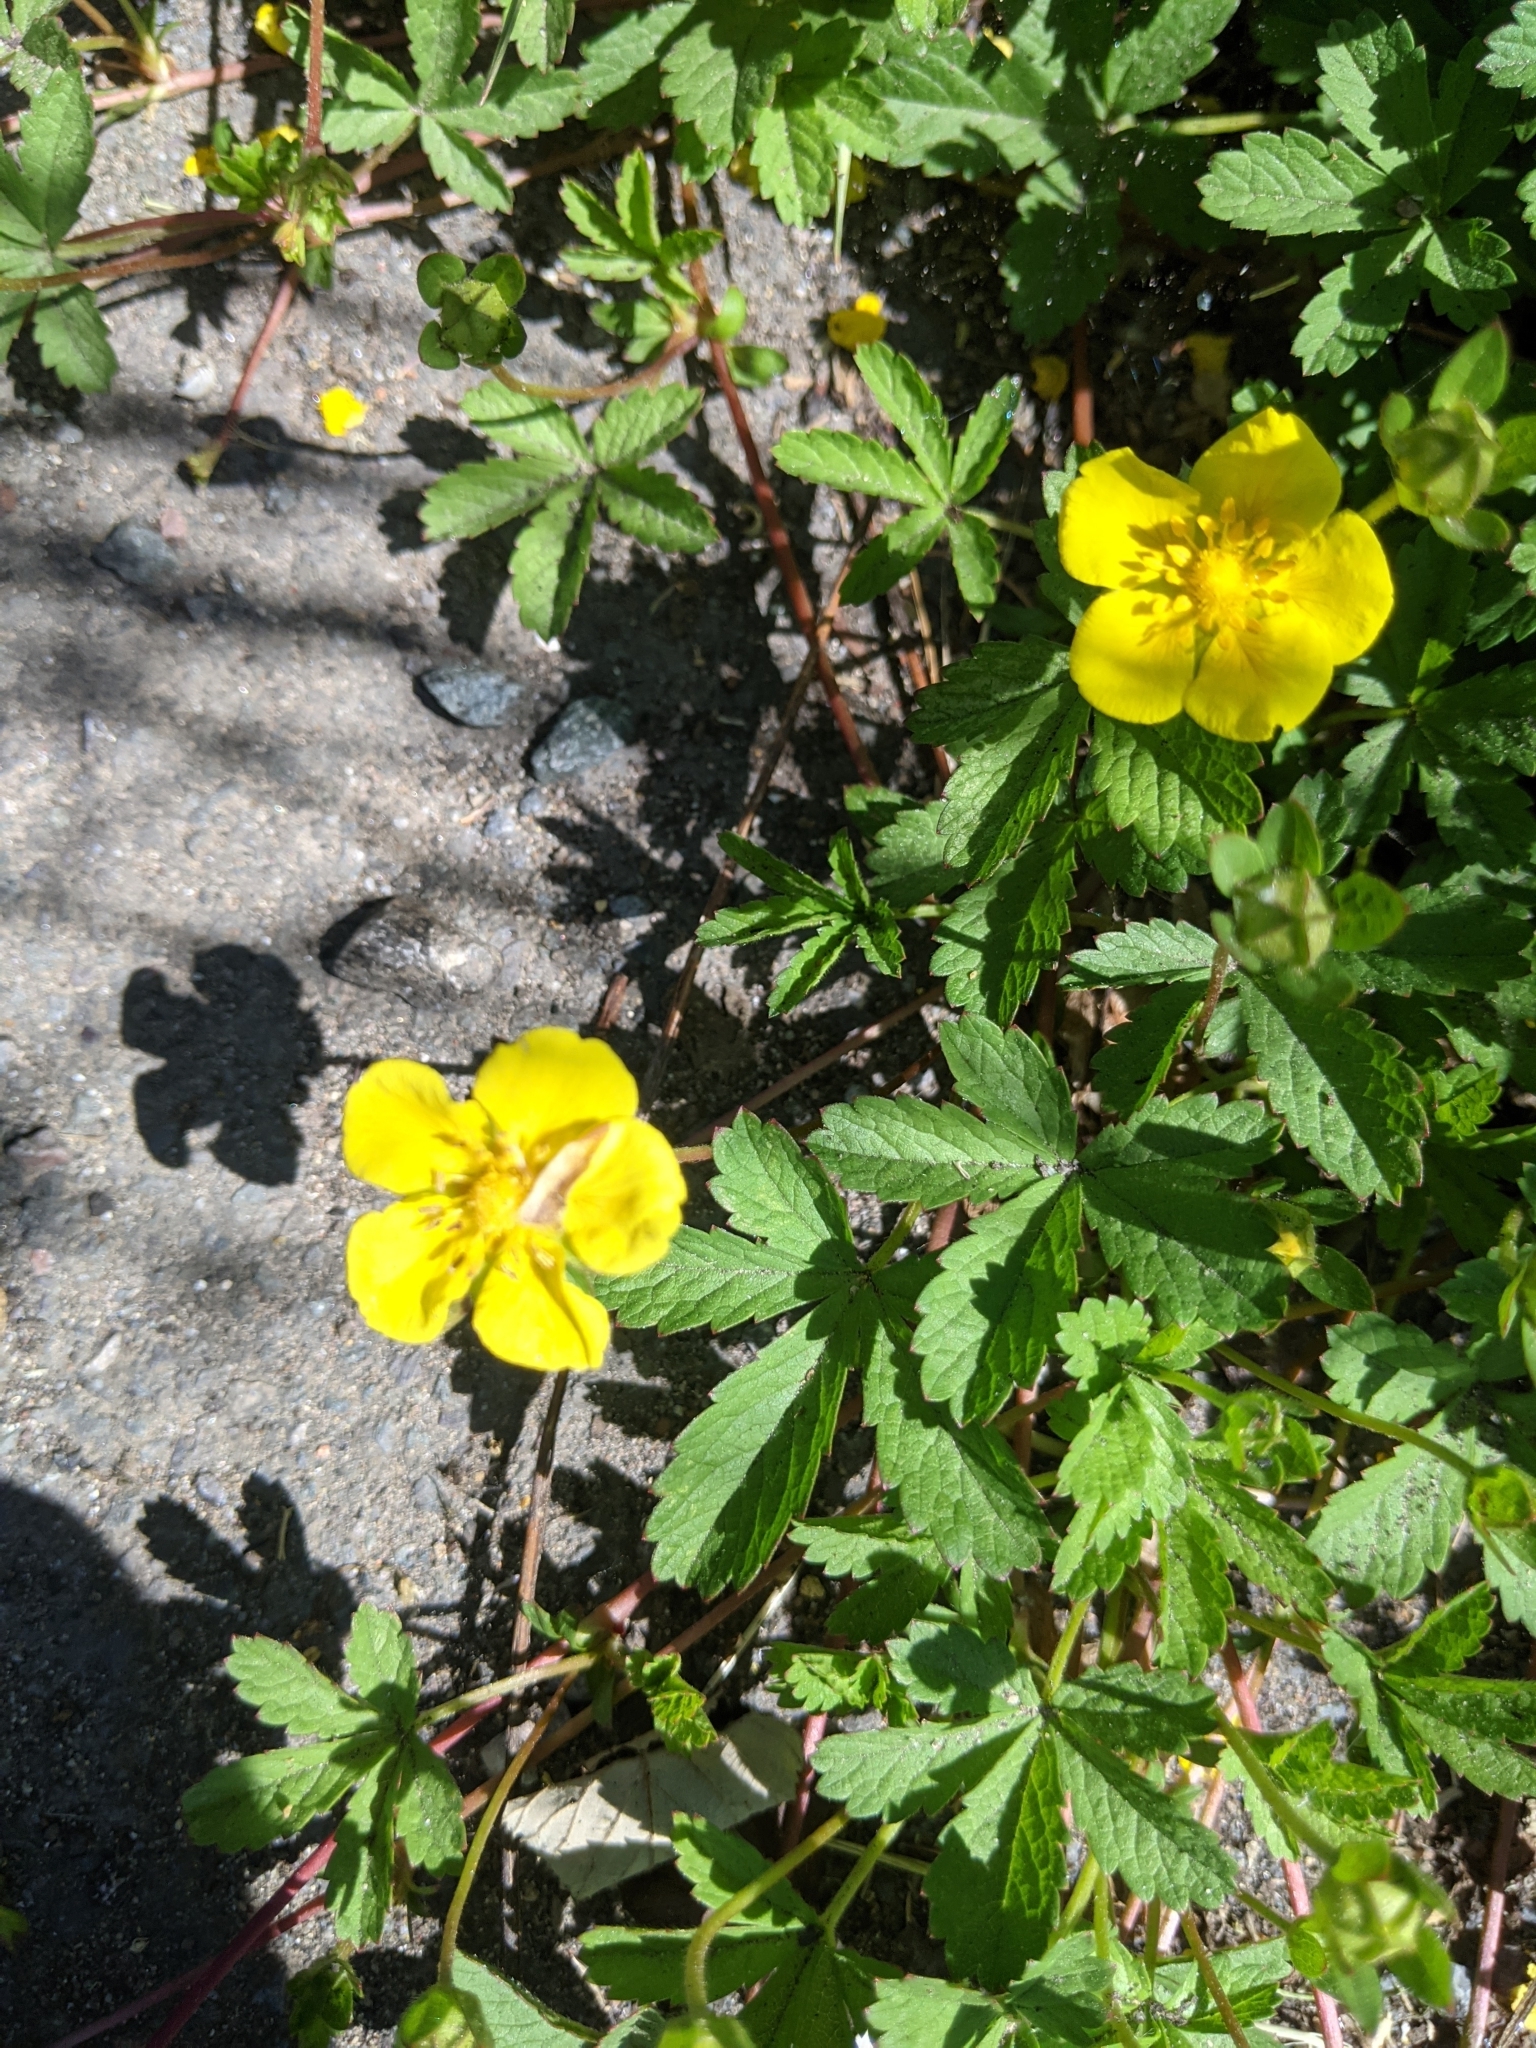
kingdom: Plantae
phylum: Tracheophyta
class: Magnoliopsida
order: Rosales
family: Rosaceae
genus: Potentilla
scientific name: Potentilla reptans
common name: Creeping cinquefoil
